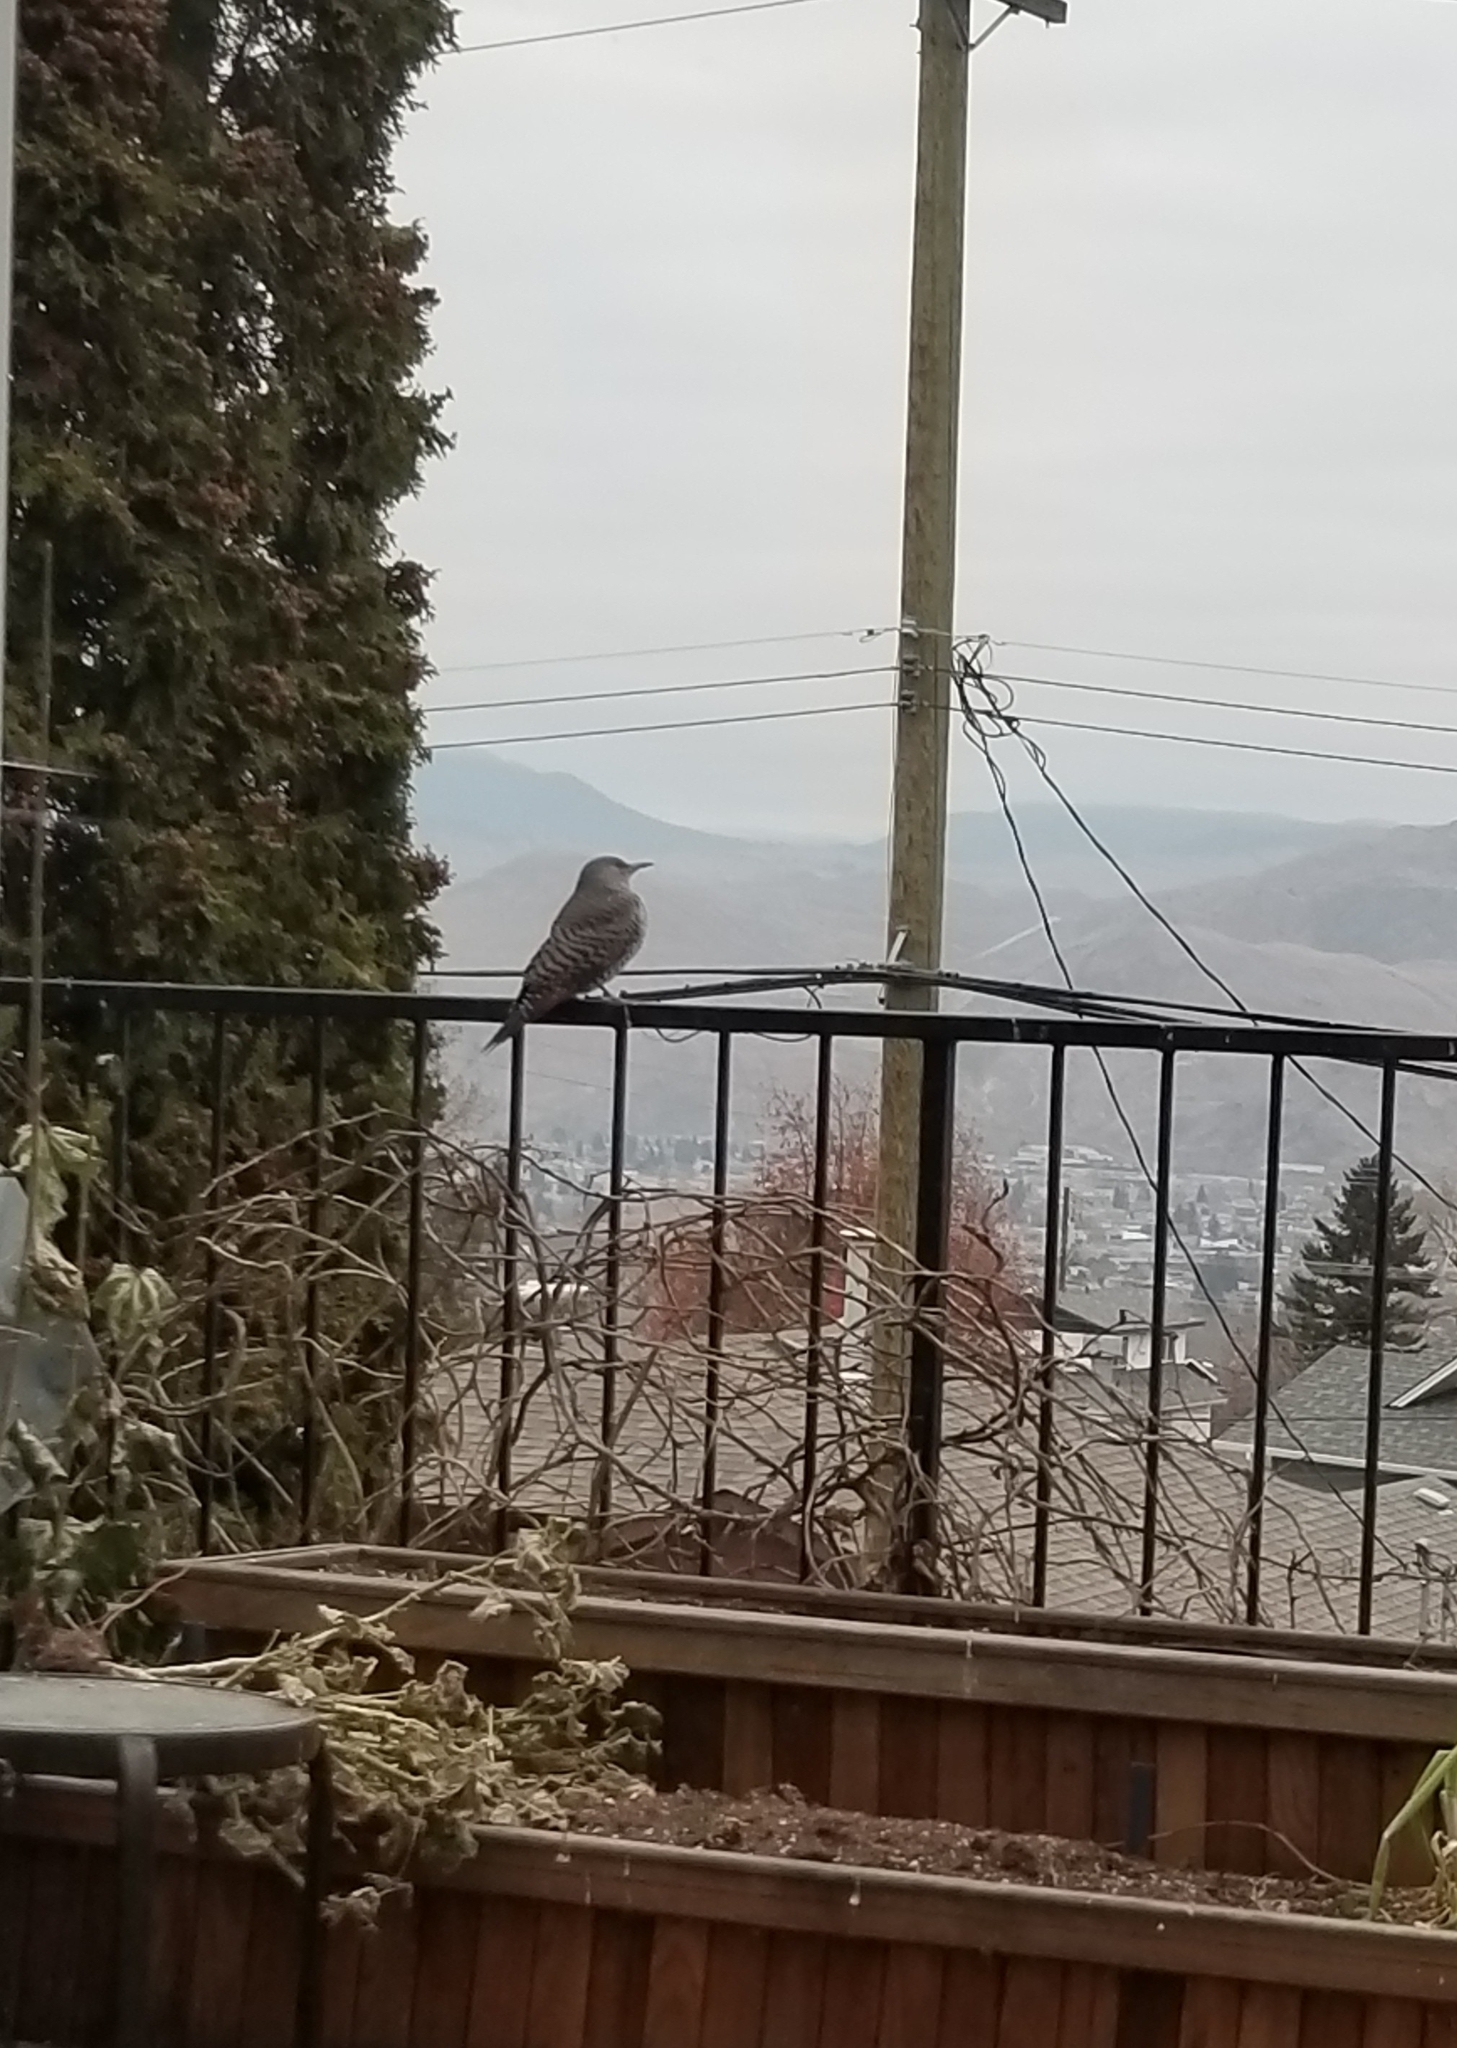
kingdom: Animalia
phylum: Chordata
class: Aves
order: Piciformes
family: Picidae
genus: Colaptes
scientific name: Colaptes auratus
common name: Northern flicker
